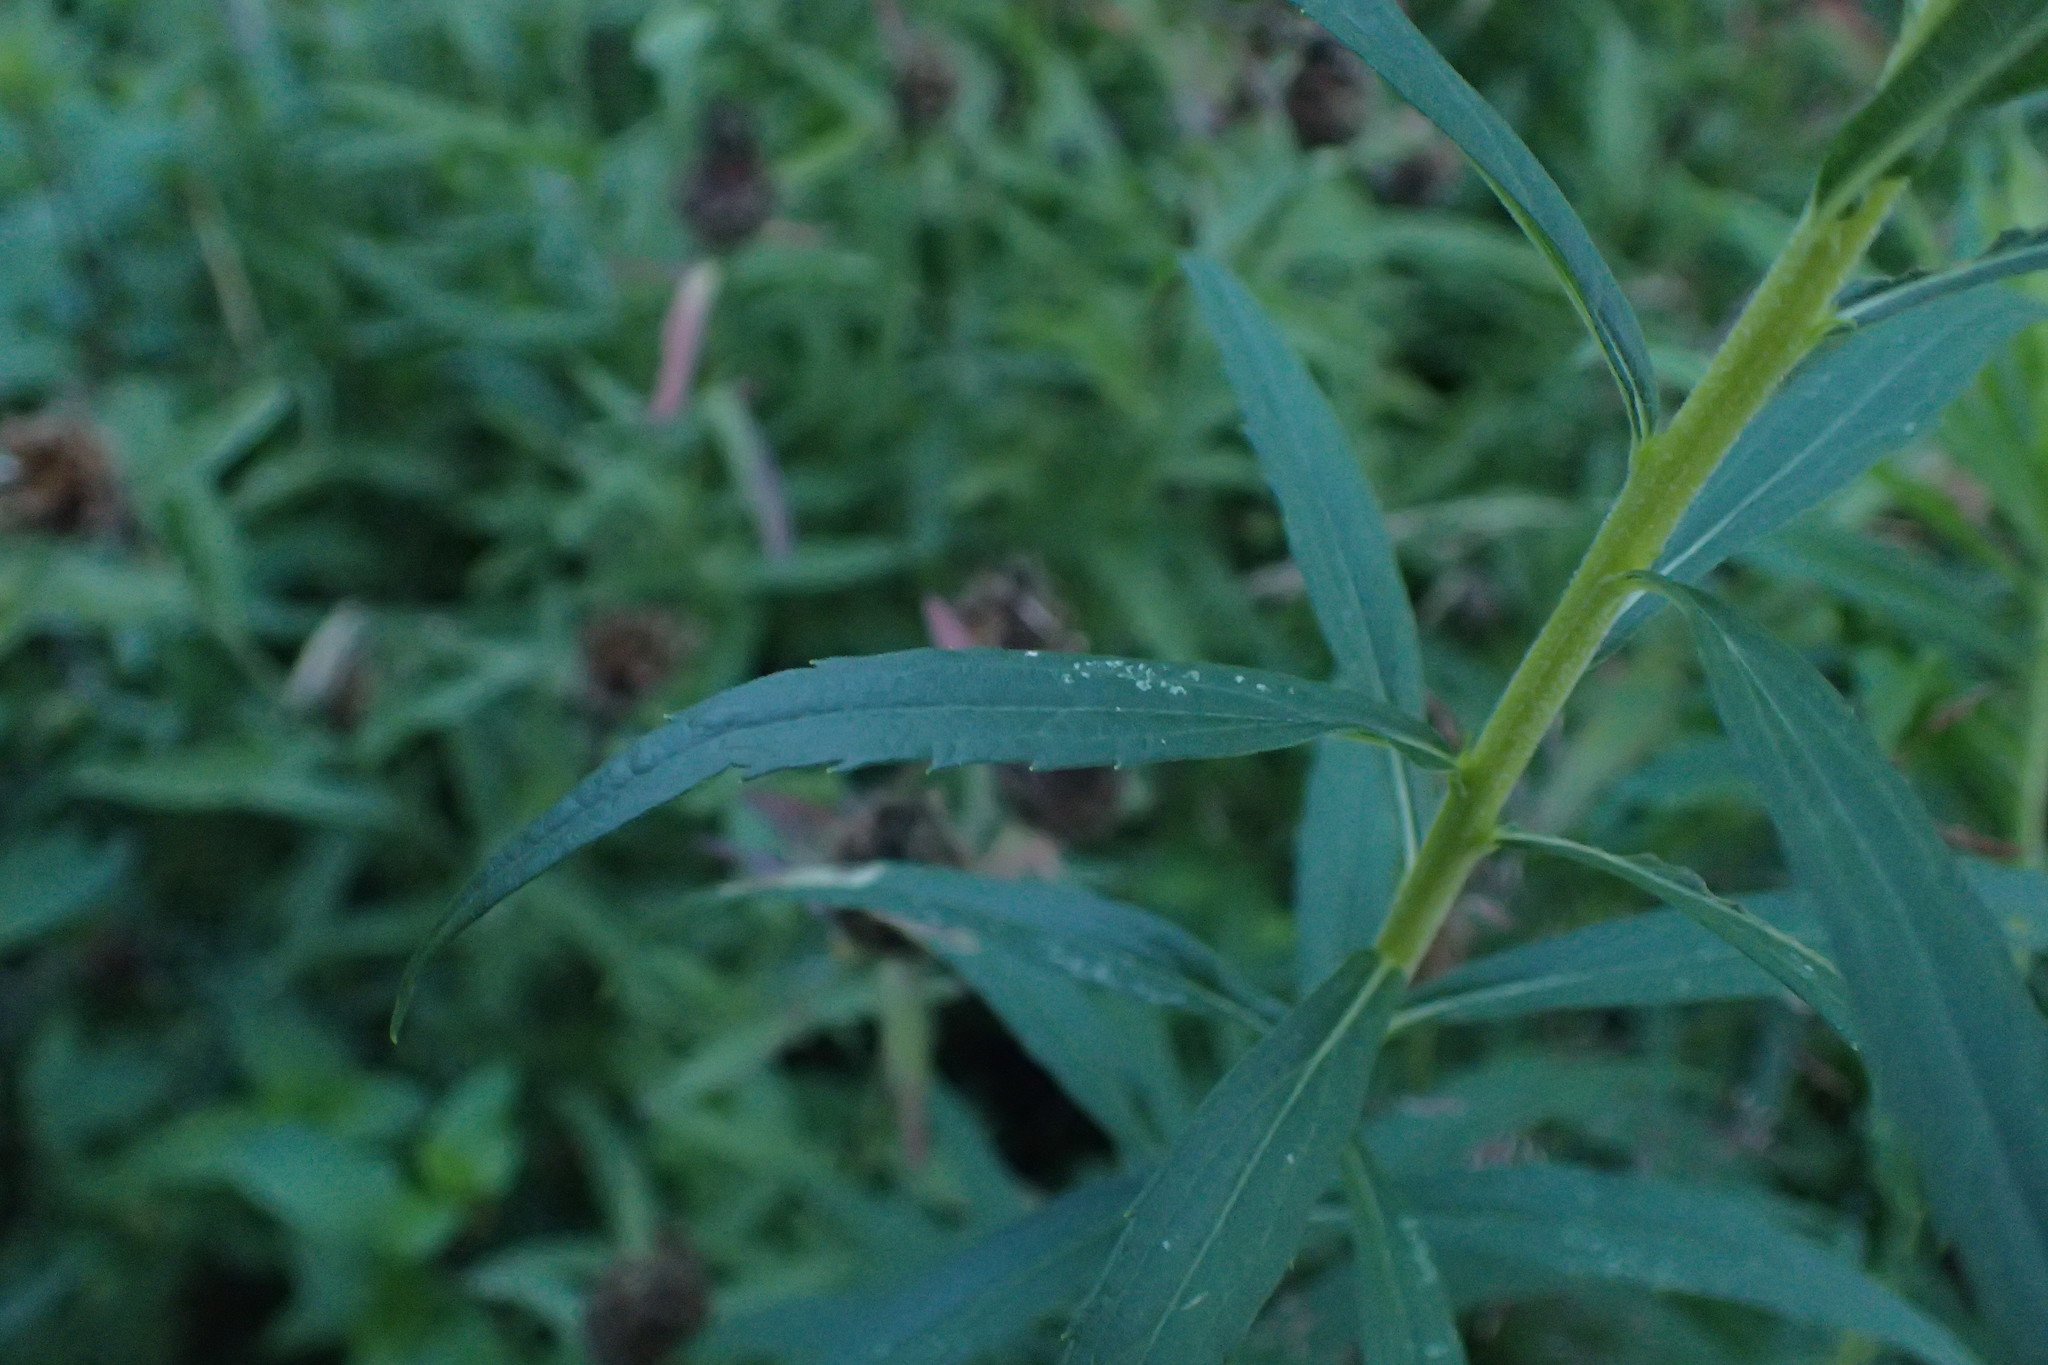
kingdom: Plantae
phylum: Tracheophyta
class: Magnoliopsida
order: Asterales
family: Asteraceae
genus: Solidago
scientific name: Solidago canadensis
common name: Canada goldenrod
